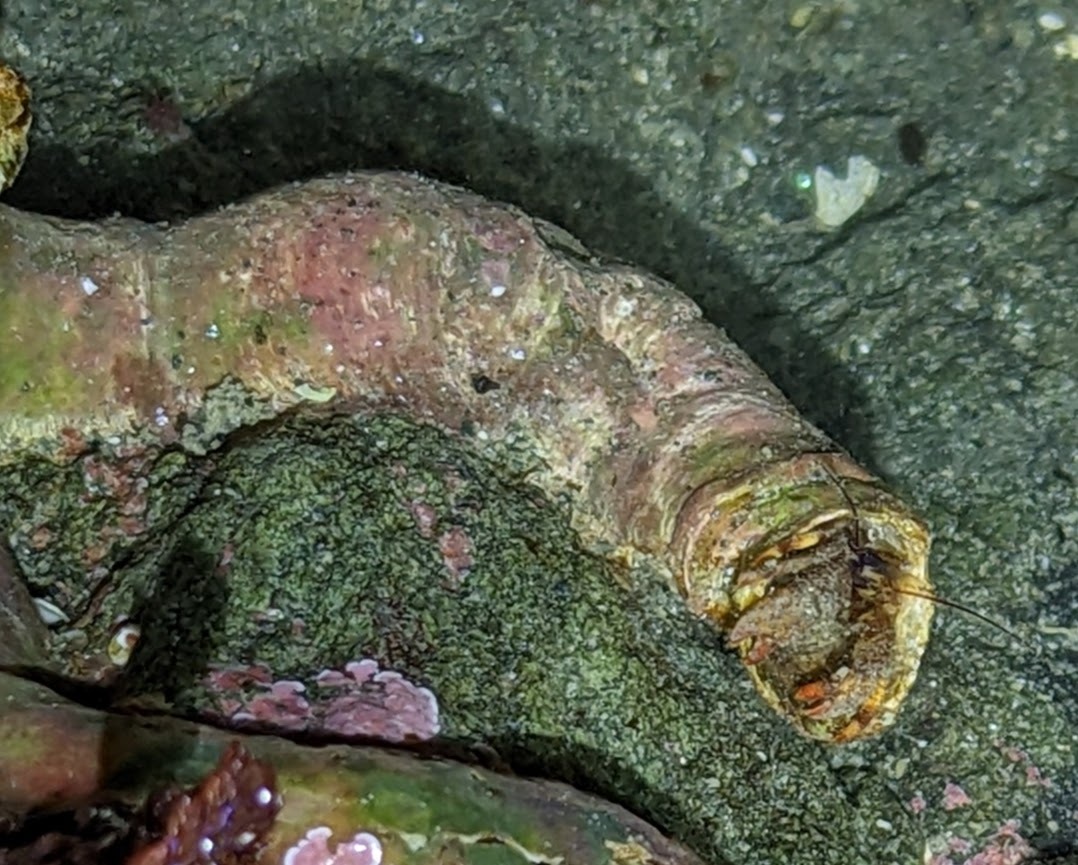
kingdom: Animalia
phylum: Arthropoda
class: Malacostraca
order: Decapoda
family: Paguridae
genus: Discorsopagurus
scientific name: Discorsopagurus schmitti
